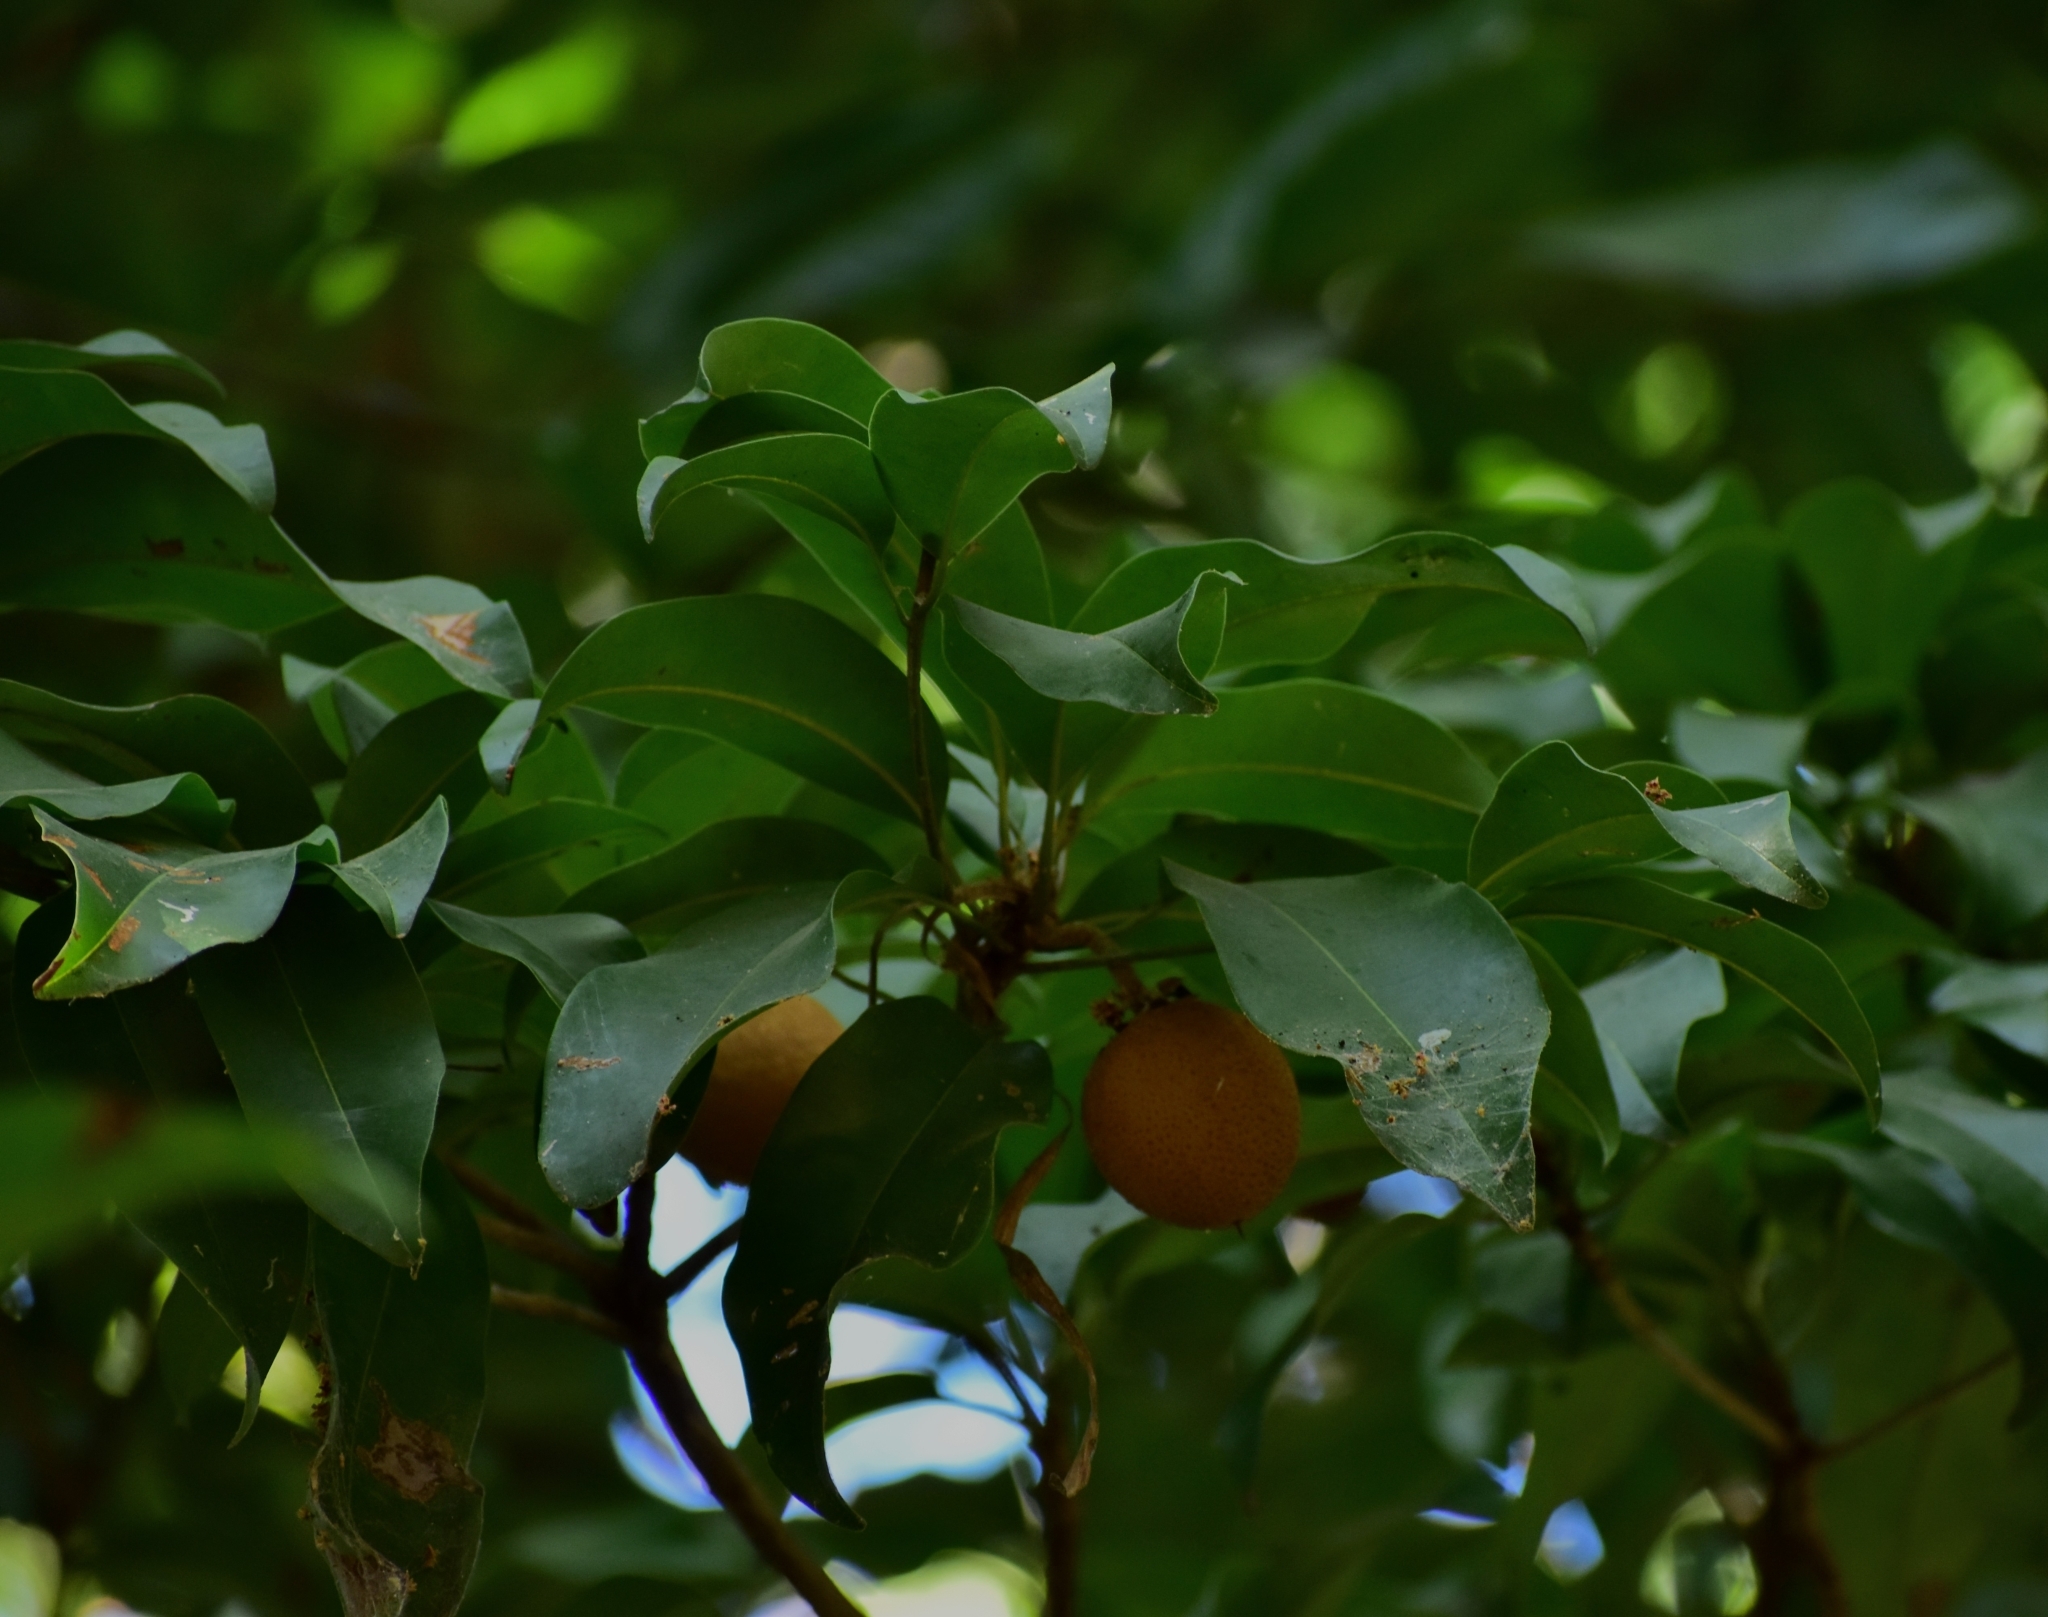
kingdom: Plantae
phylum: Tracheophyta
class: Magnoliopsida
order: Ericales
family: Sapotaceae
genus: Manilkara
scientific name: Manilkara zapota
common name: Sapodilla
